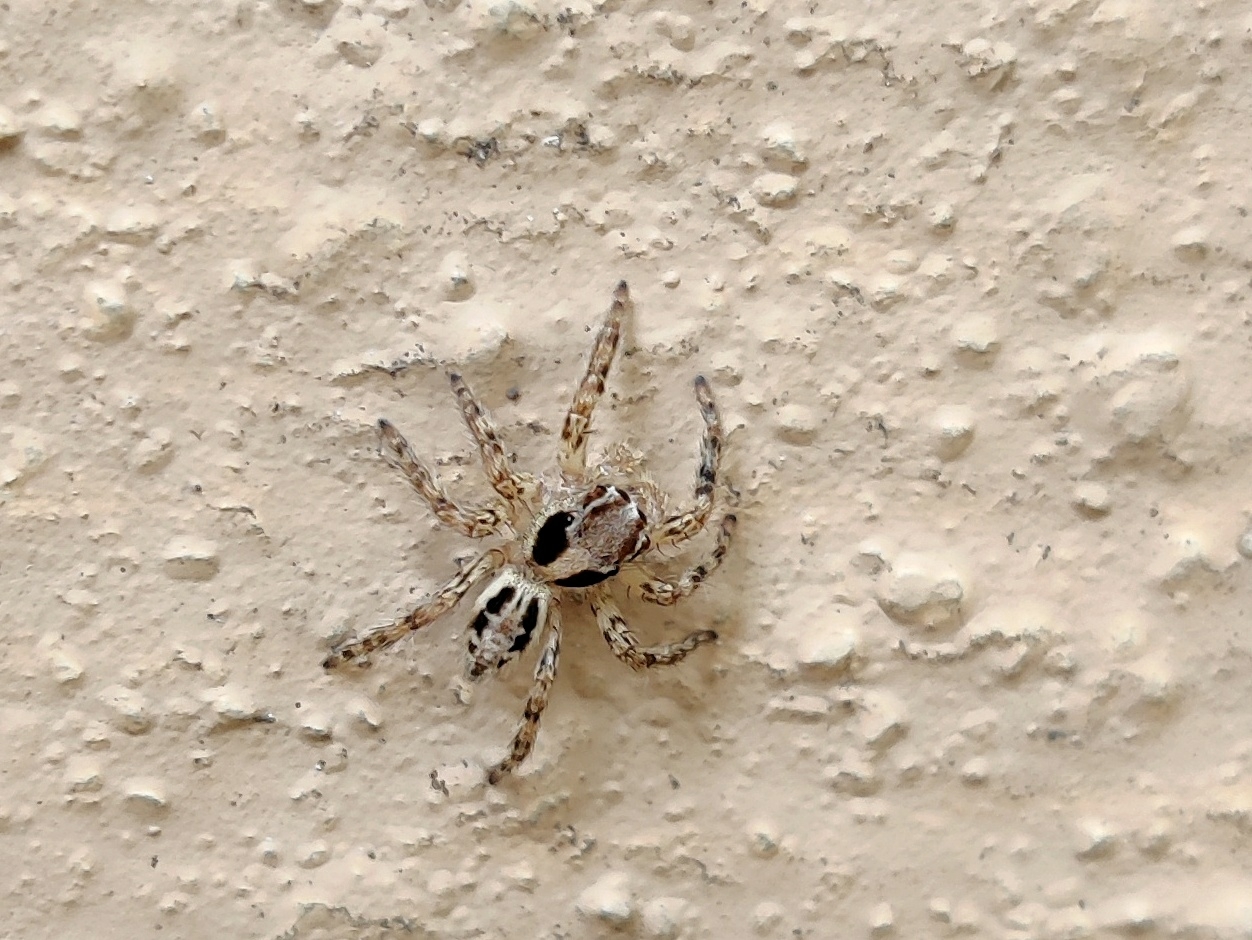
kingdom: Animalia
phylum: Arthropoda
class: Arachnida
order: Araneae
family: Salticidae
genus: Plexippus
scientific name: Plexippus petersi
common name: Jumping spider
